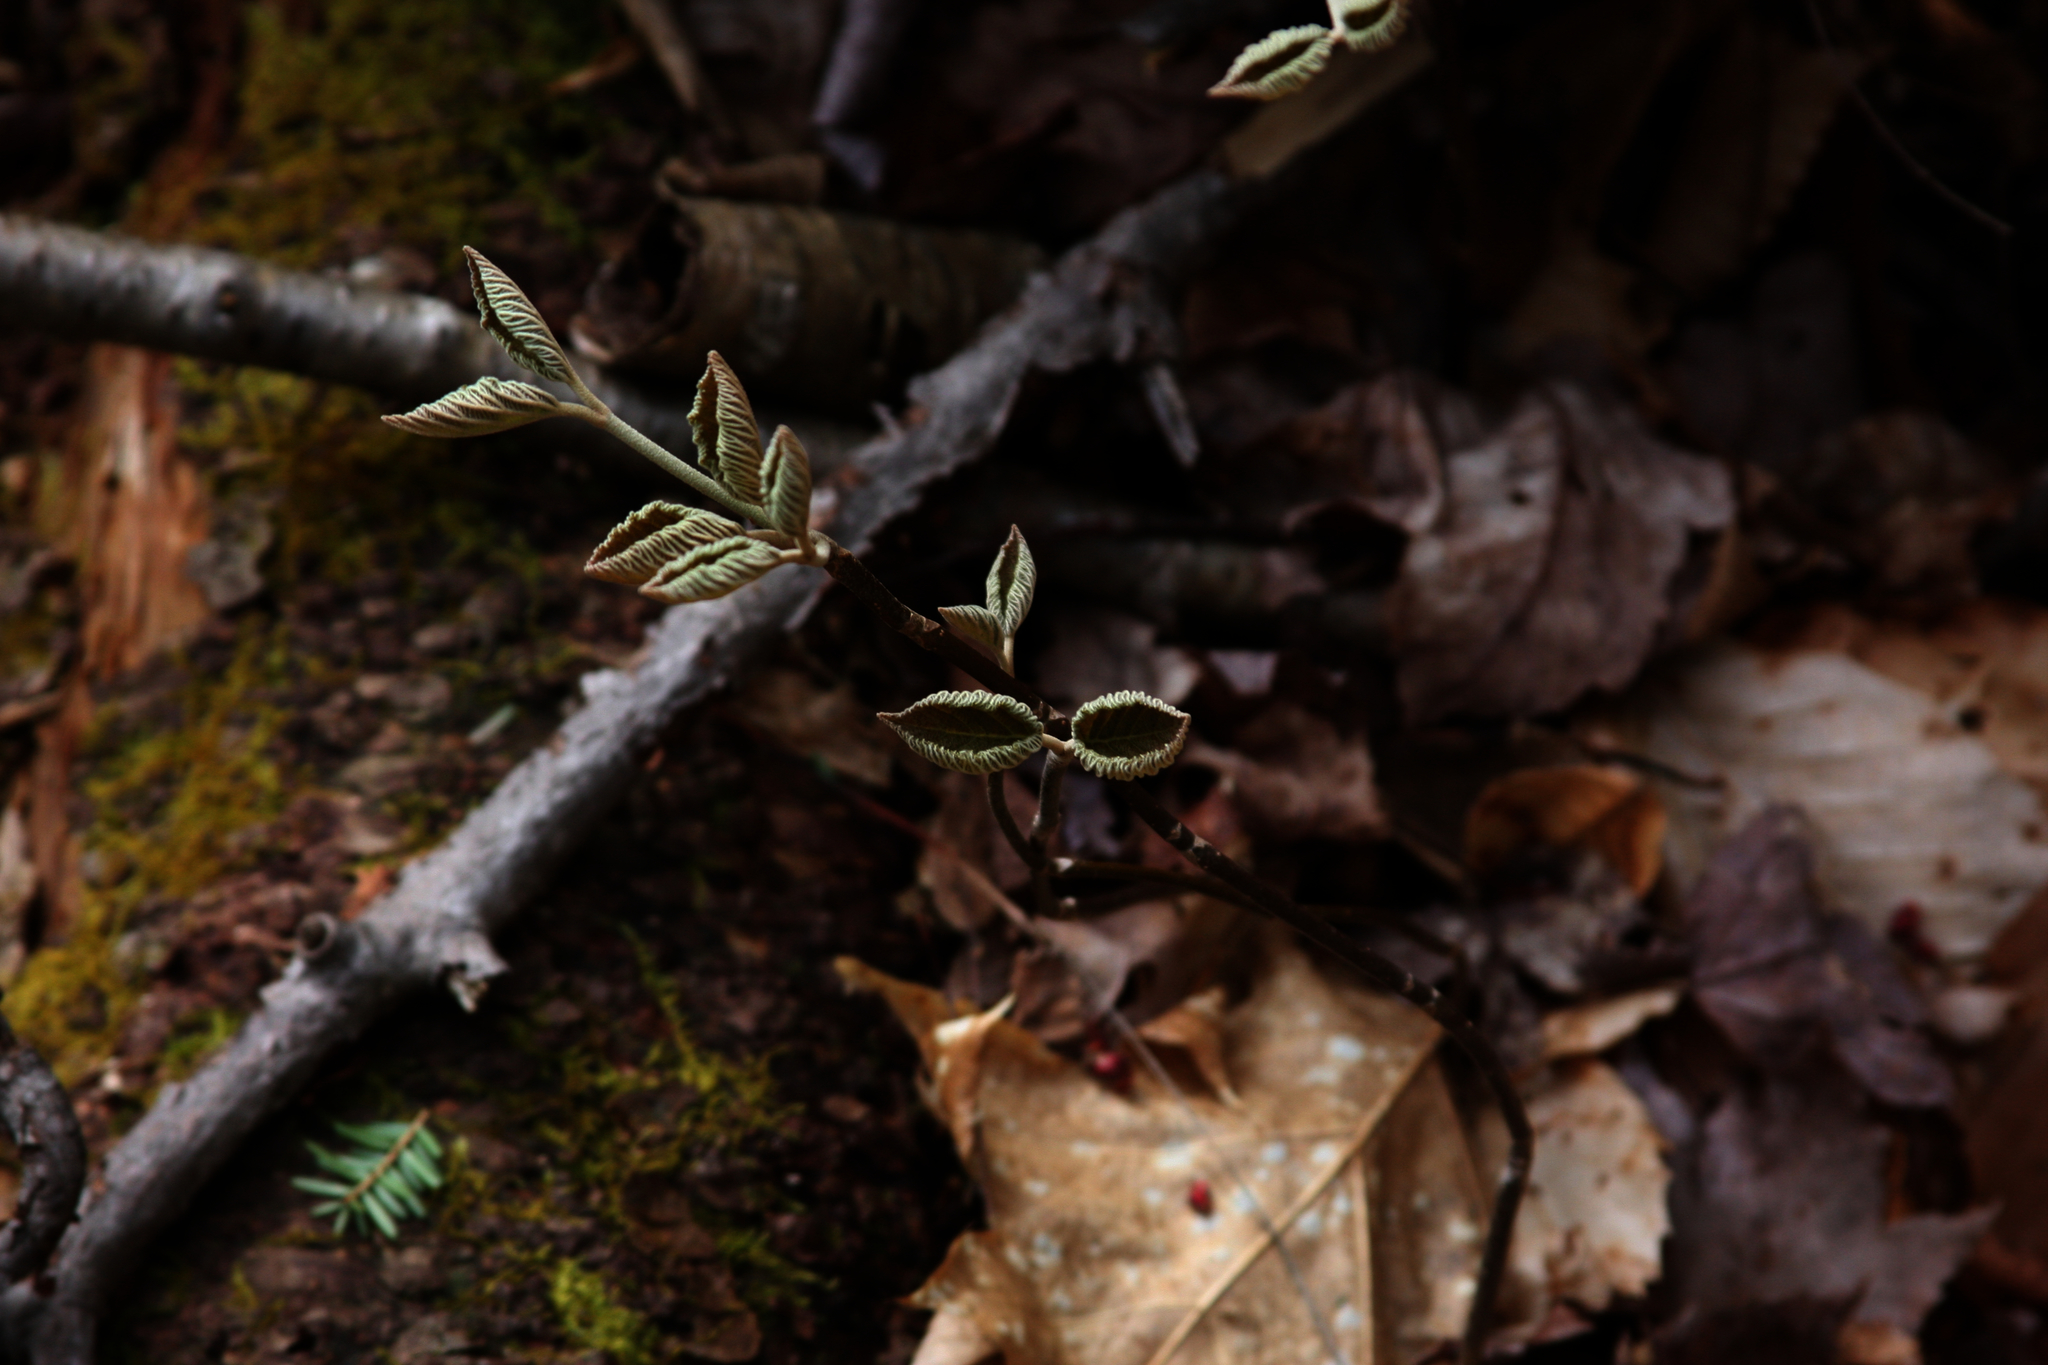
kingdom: Plantae
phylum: Tracheophyta
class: Magnoliopsida
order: Dipsacales
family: Viburnaceae
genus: Viburnum
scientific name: Viburnum lantanoides
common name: Hobblebush
